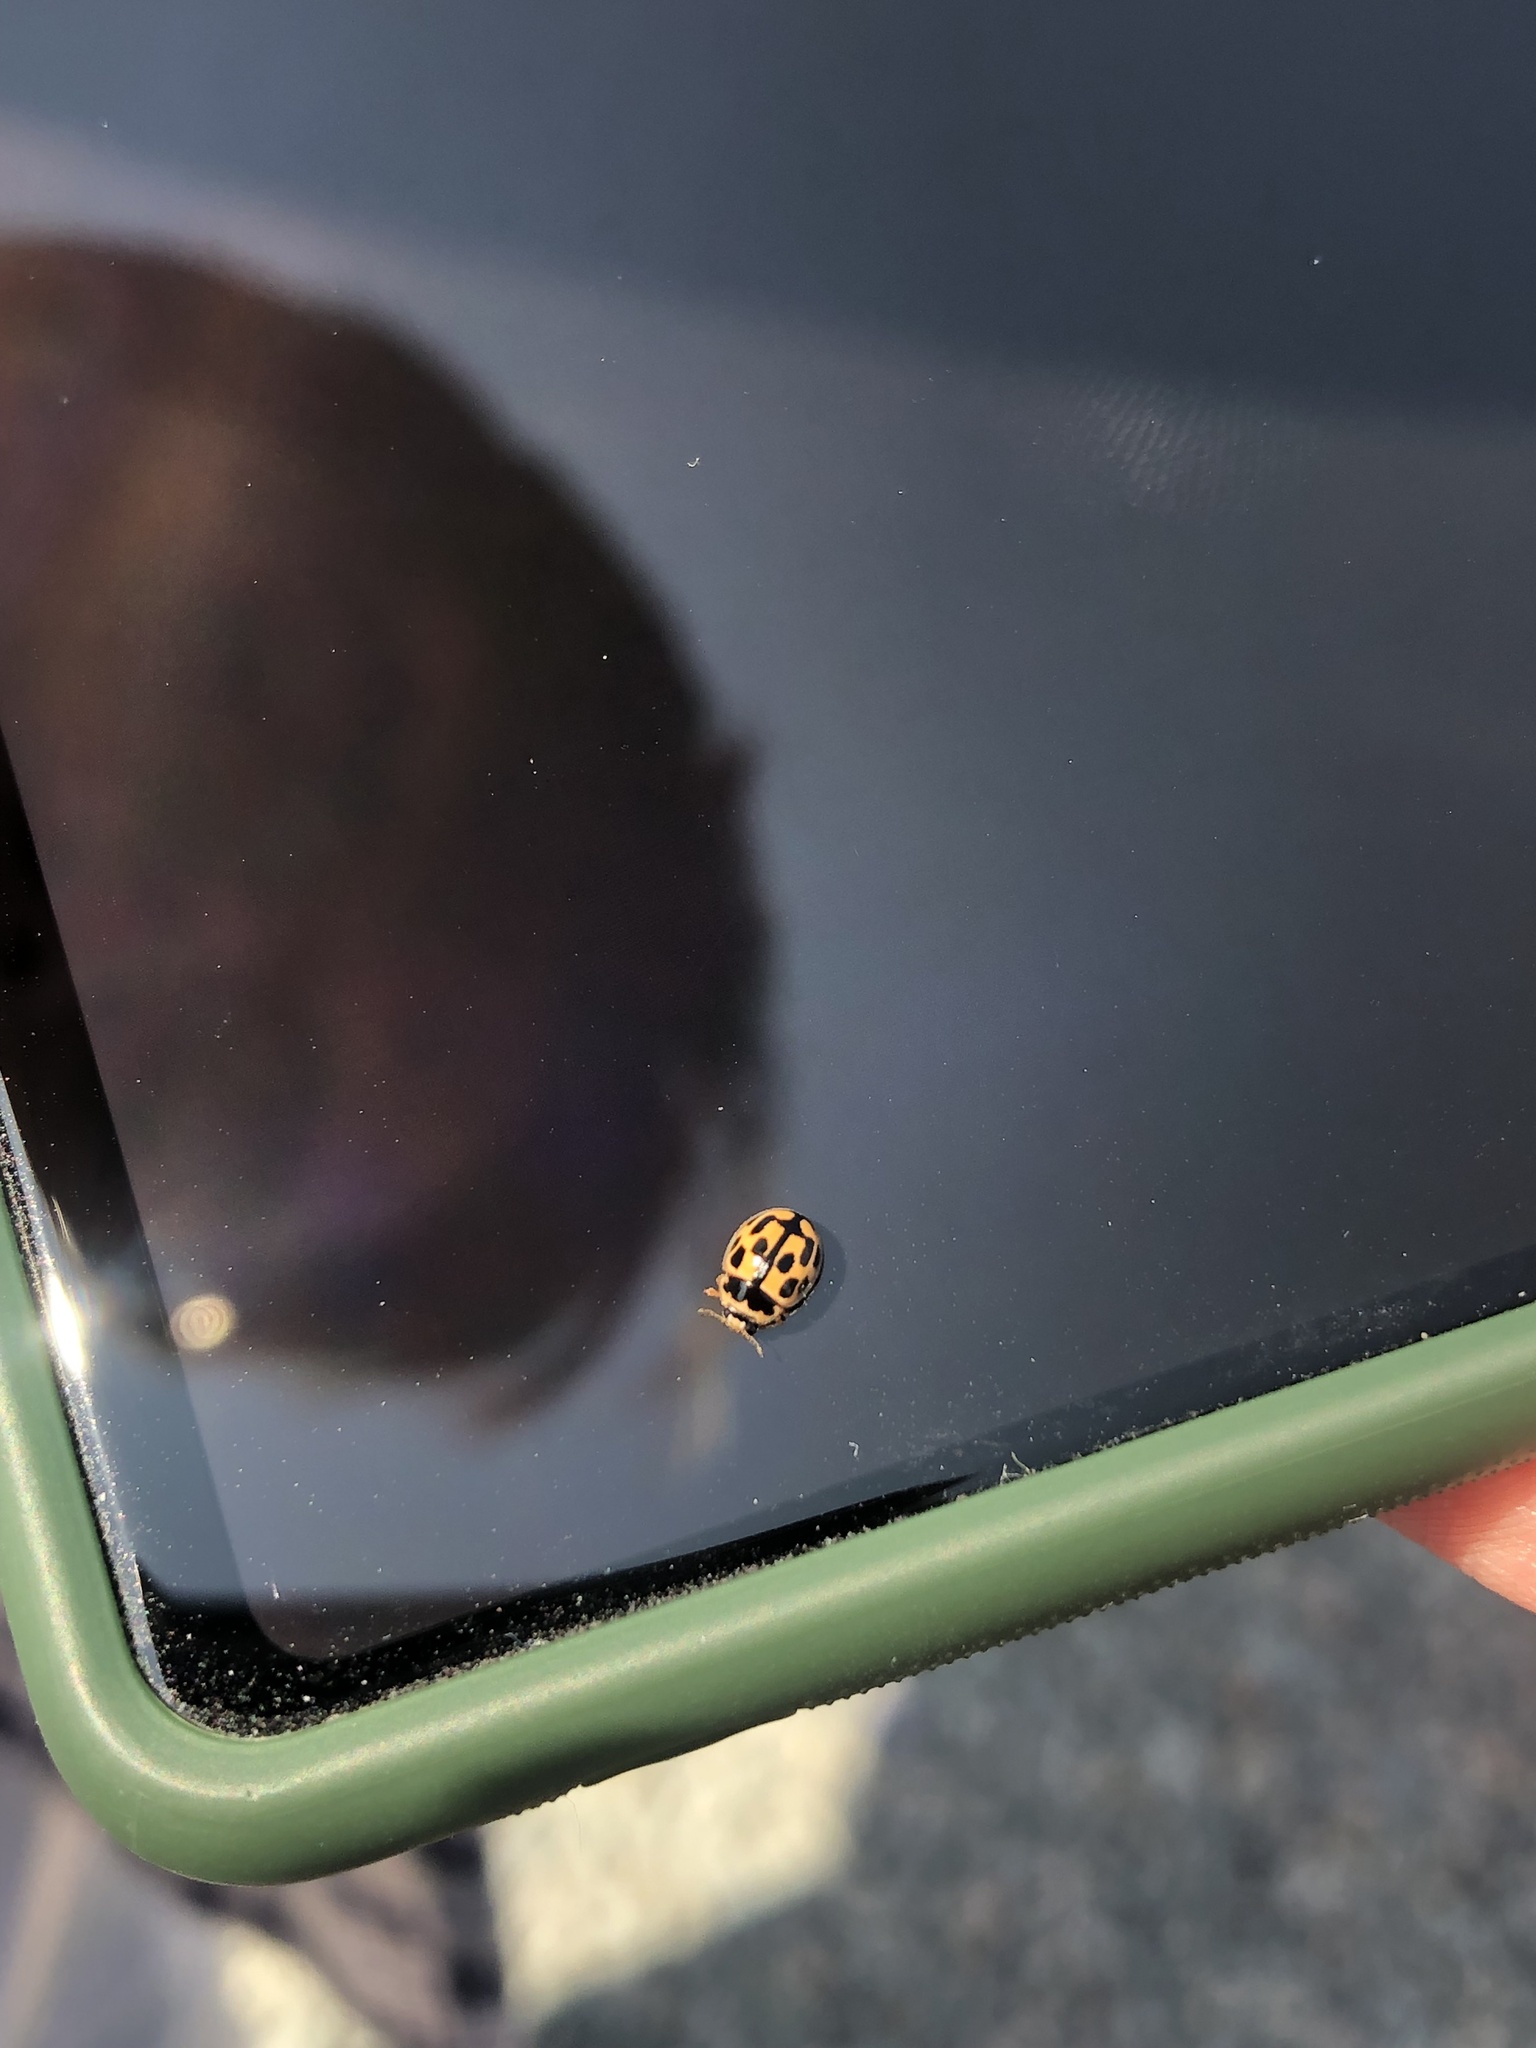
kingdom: Animalia
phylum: Arthropoda
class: Insecta
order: Coleoptera
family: Coccinellidae
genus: Propylaea
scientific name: Propylaea quatuordecimpunctata
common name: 14-spotted ladybird beetle
